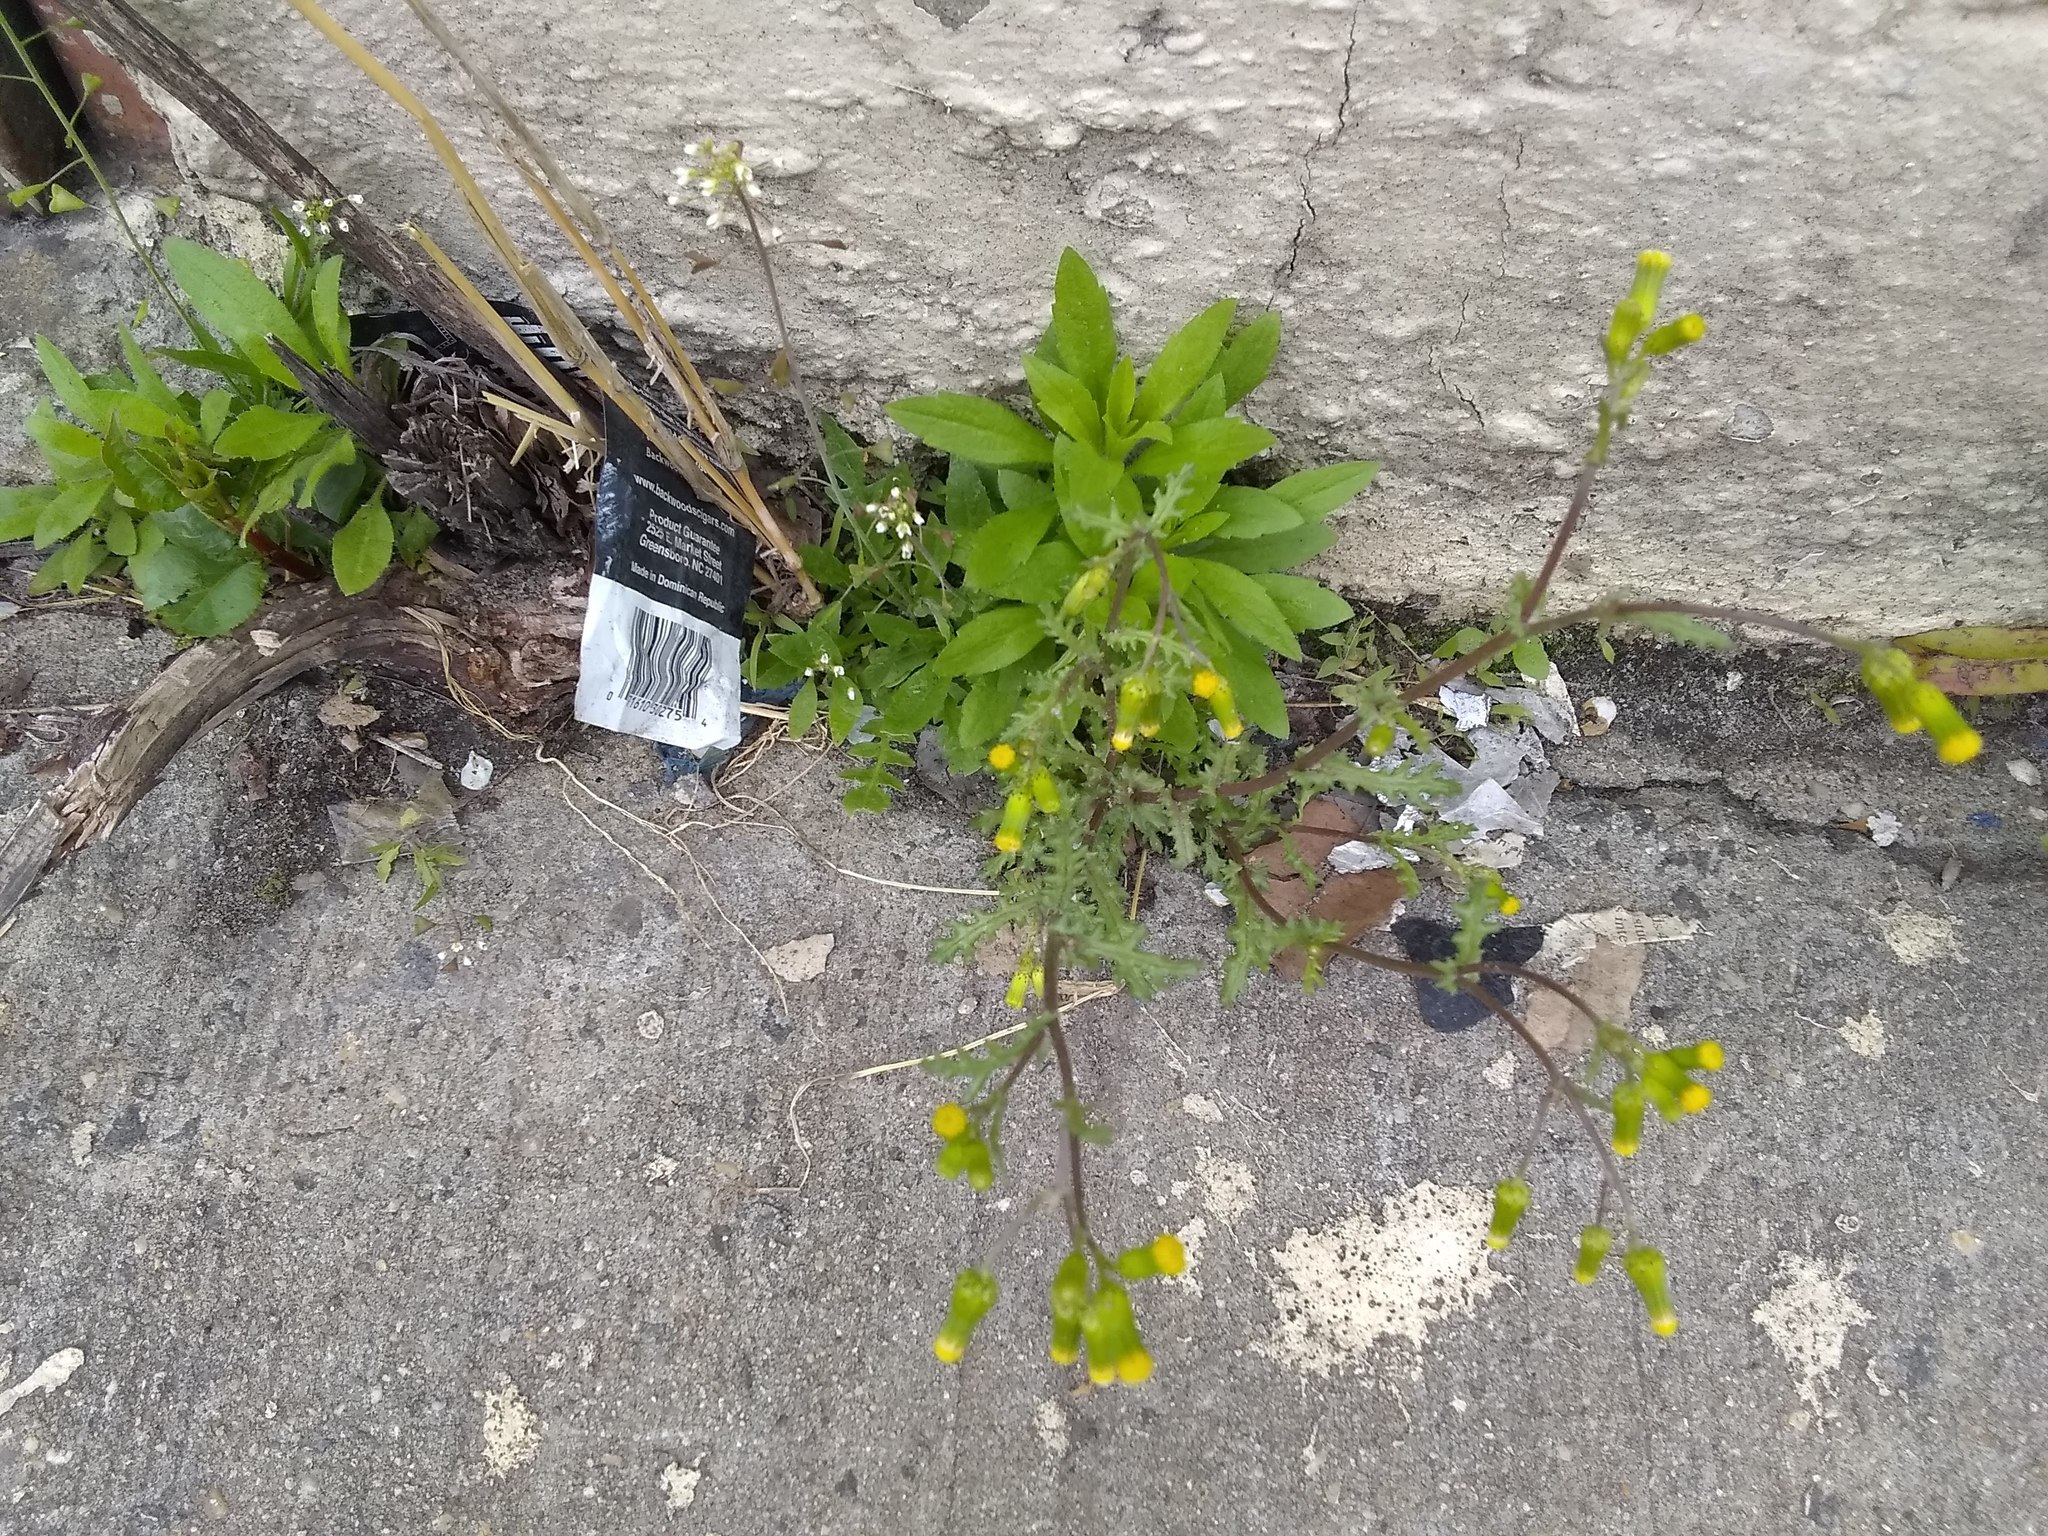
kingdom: Plantae
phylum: Tracheophyta
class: Magnoliopsida
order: Asterales
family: Asteraceae
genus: Senecio
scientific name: Senecio vulgaris
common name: Old-man-in-the-spring
